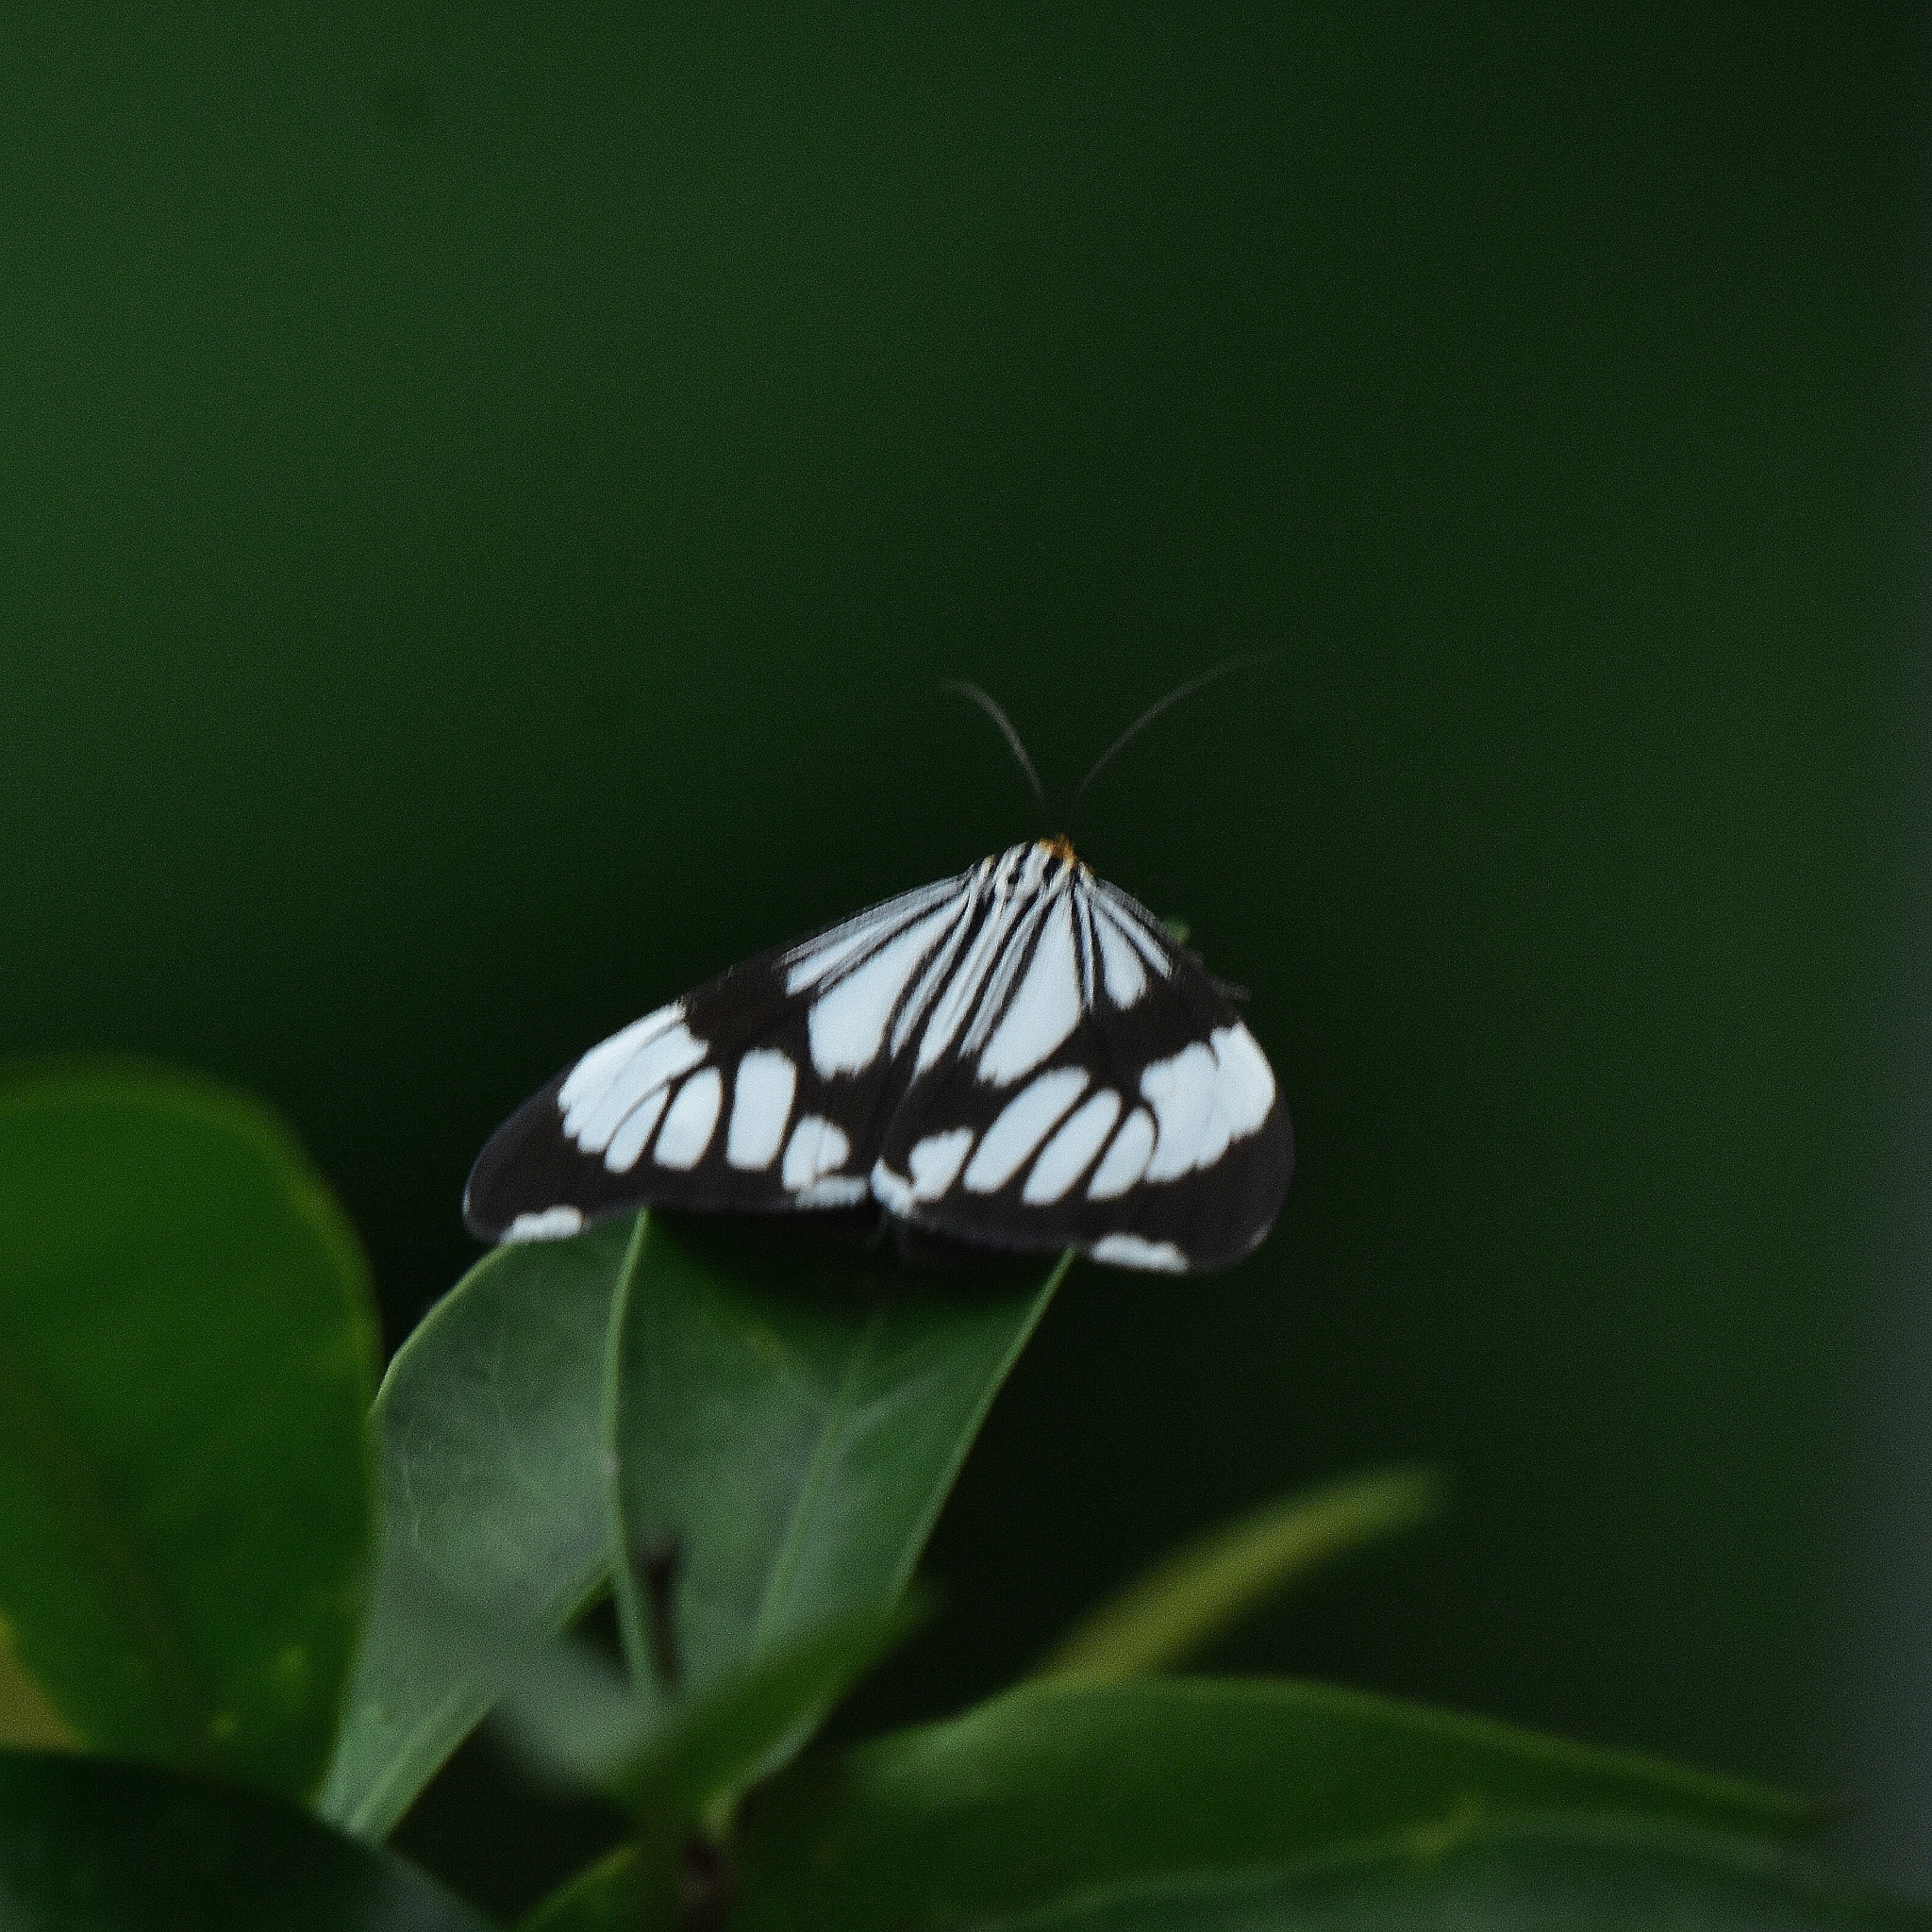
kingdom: Animalia
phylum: Arthropoda
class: Insecta
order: Lepidoptera
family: Erebidae
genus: Nyctemera
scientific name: Nyctemera coleta
